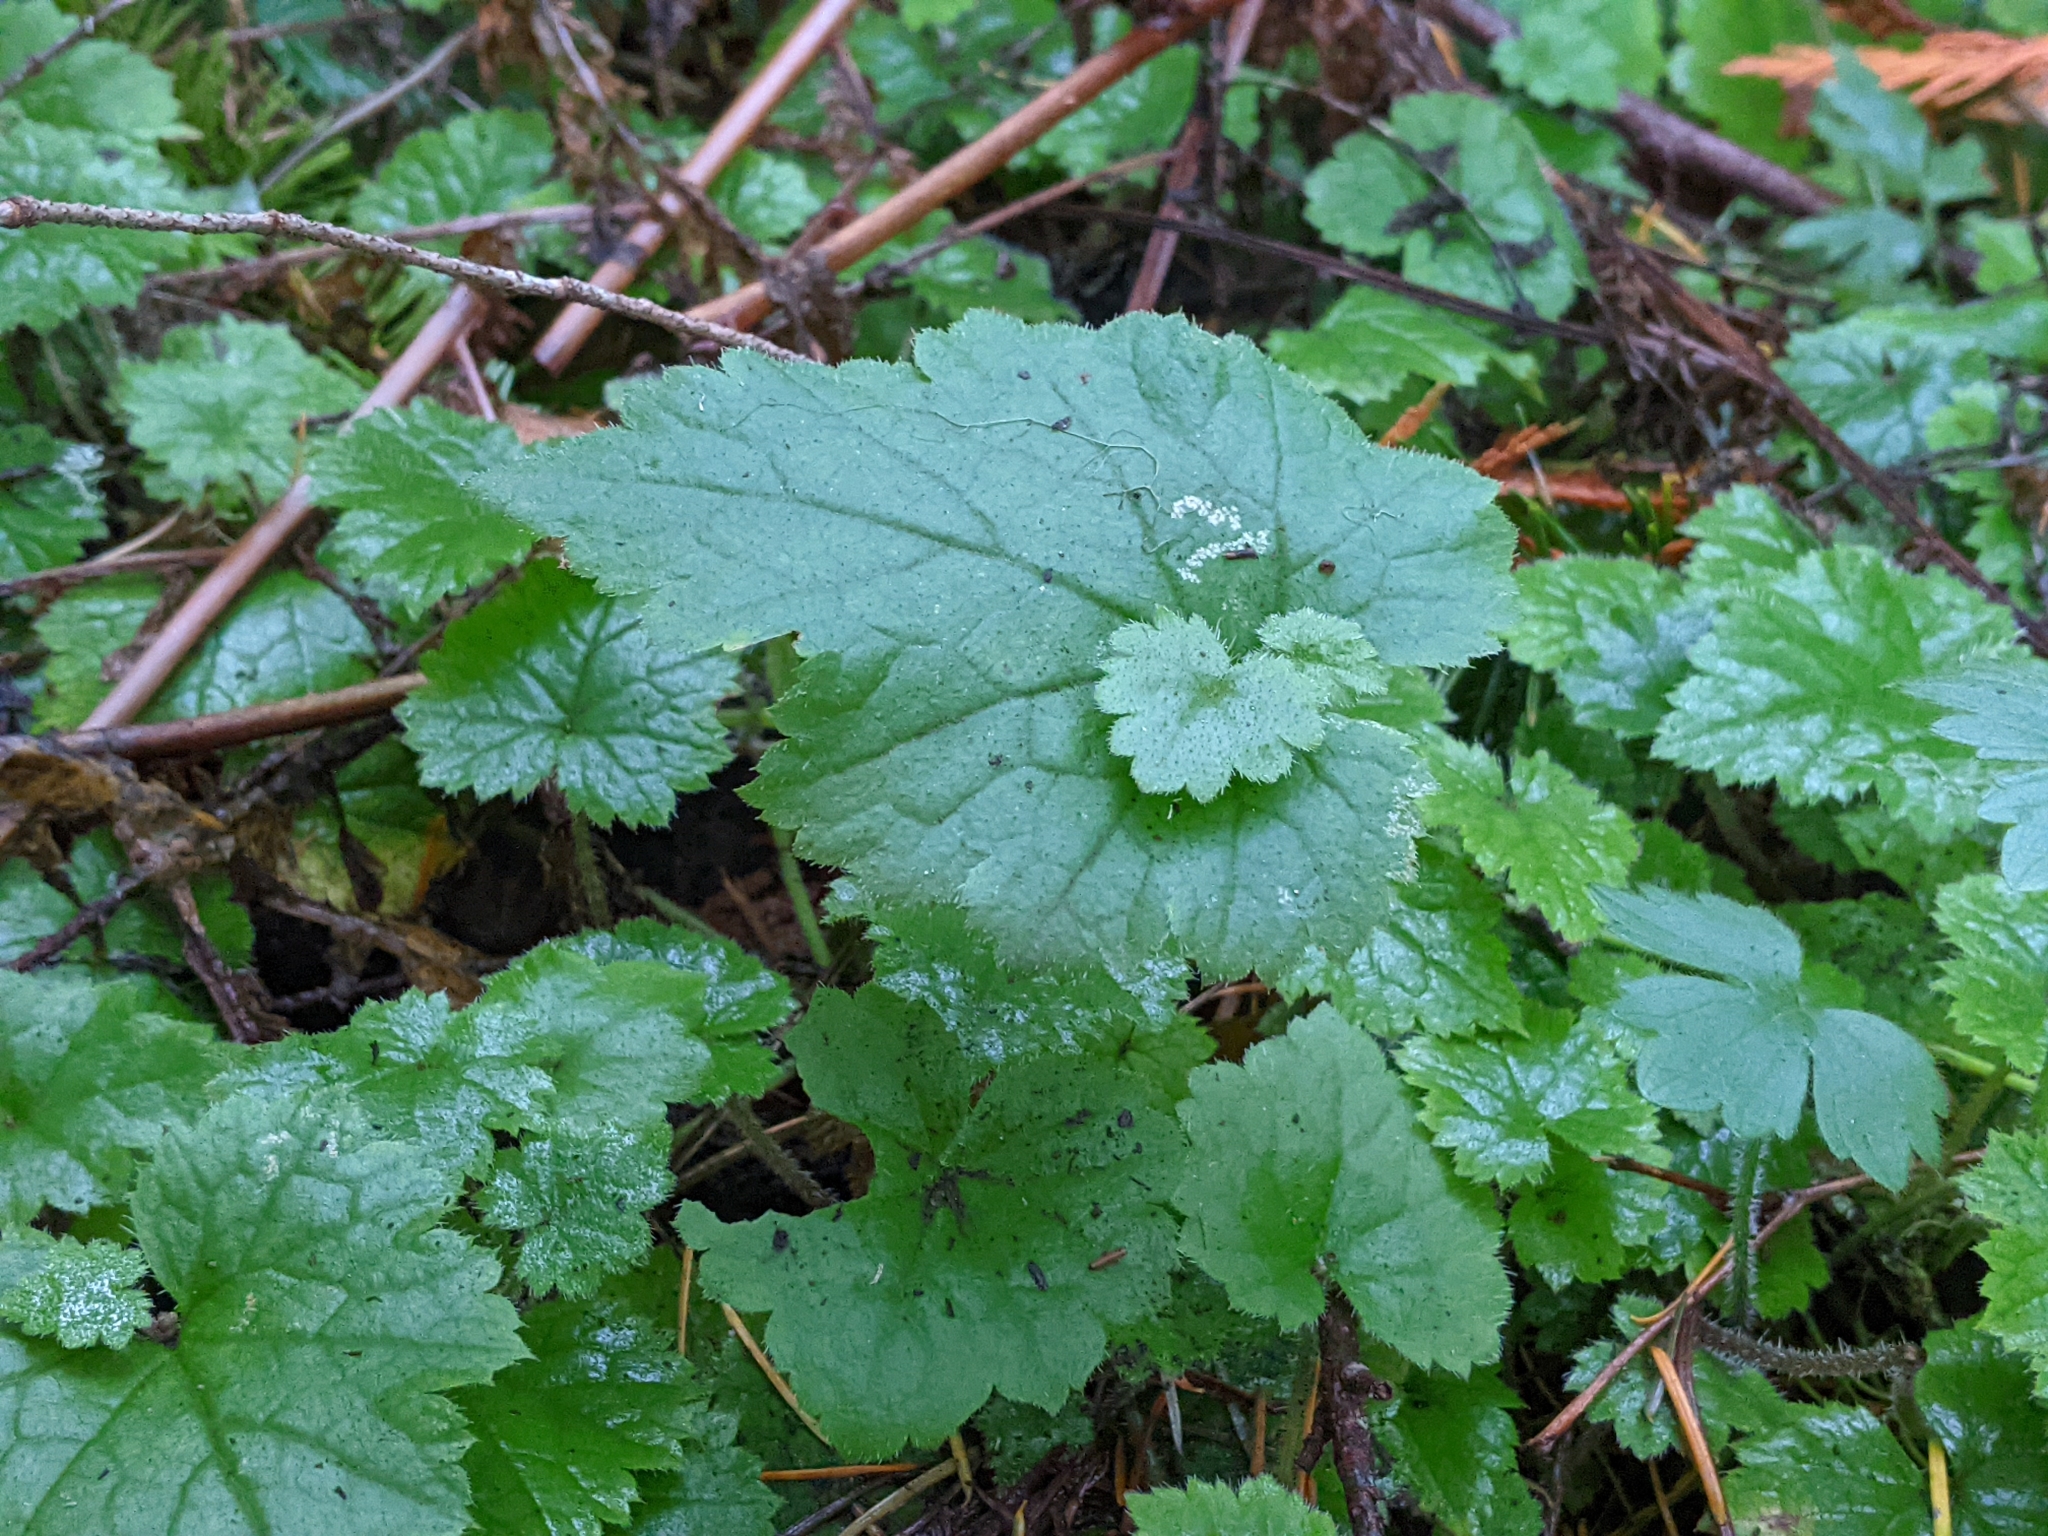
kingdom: Plantae
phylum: Tracheophyta
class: Magnoliopsida
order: Saxifragales
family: Saxifragaceae
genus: Tolmiea
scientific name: Tolmiea menziesii
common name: Pick-a-back-plant
